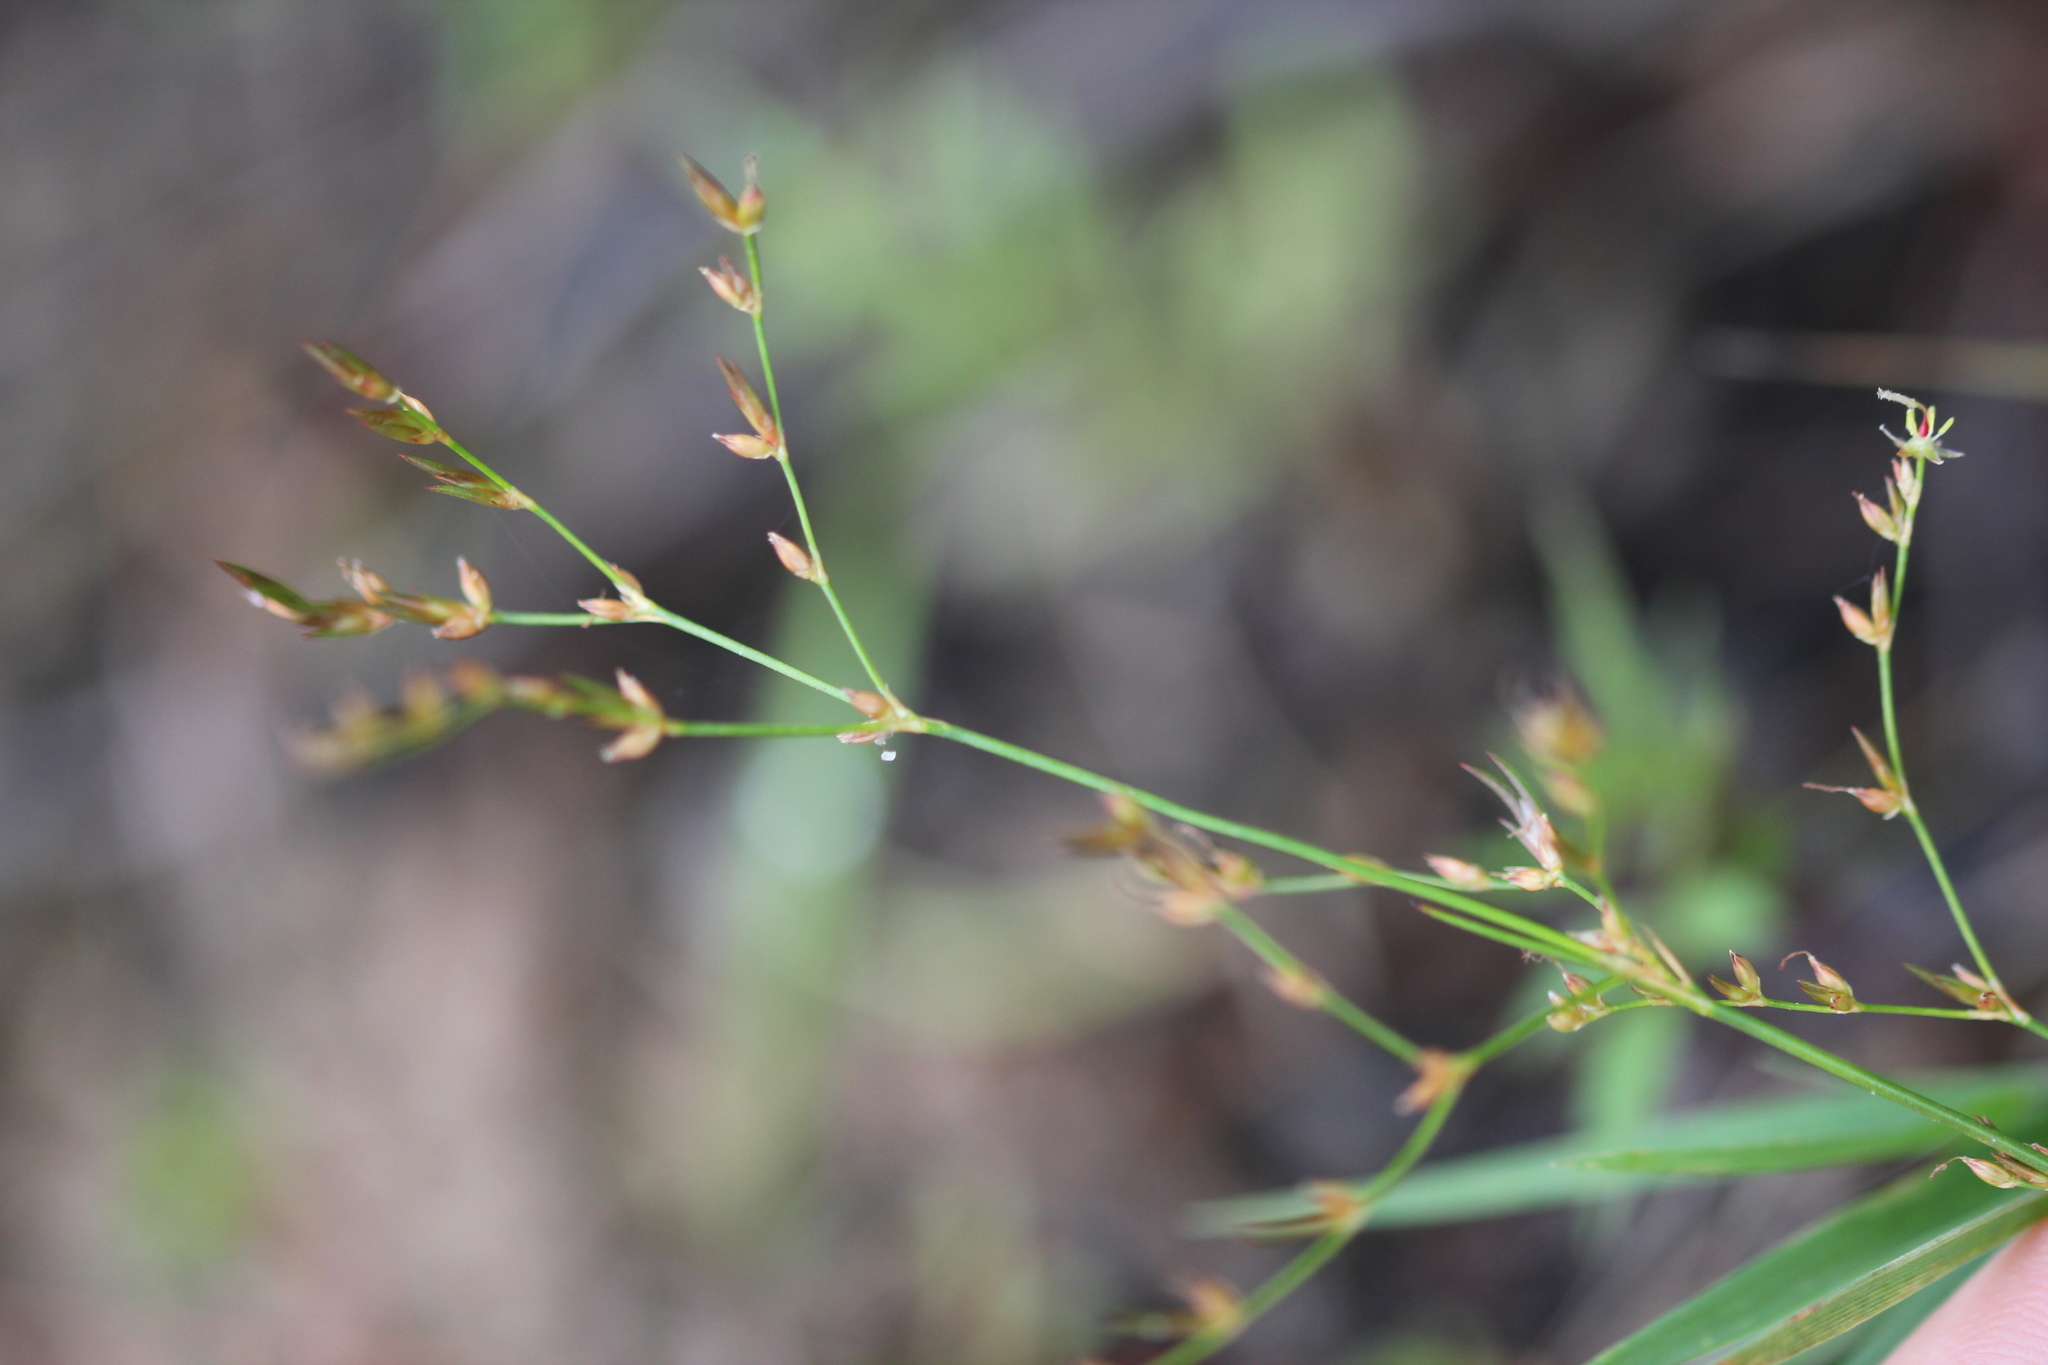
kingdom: Plantae
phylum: Tracheophyta
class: Liliopsida
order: Poales
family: Juncaceae
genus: Juncus
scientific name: Juncus pelocarpus
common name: Brown-fruited rush
